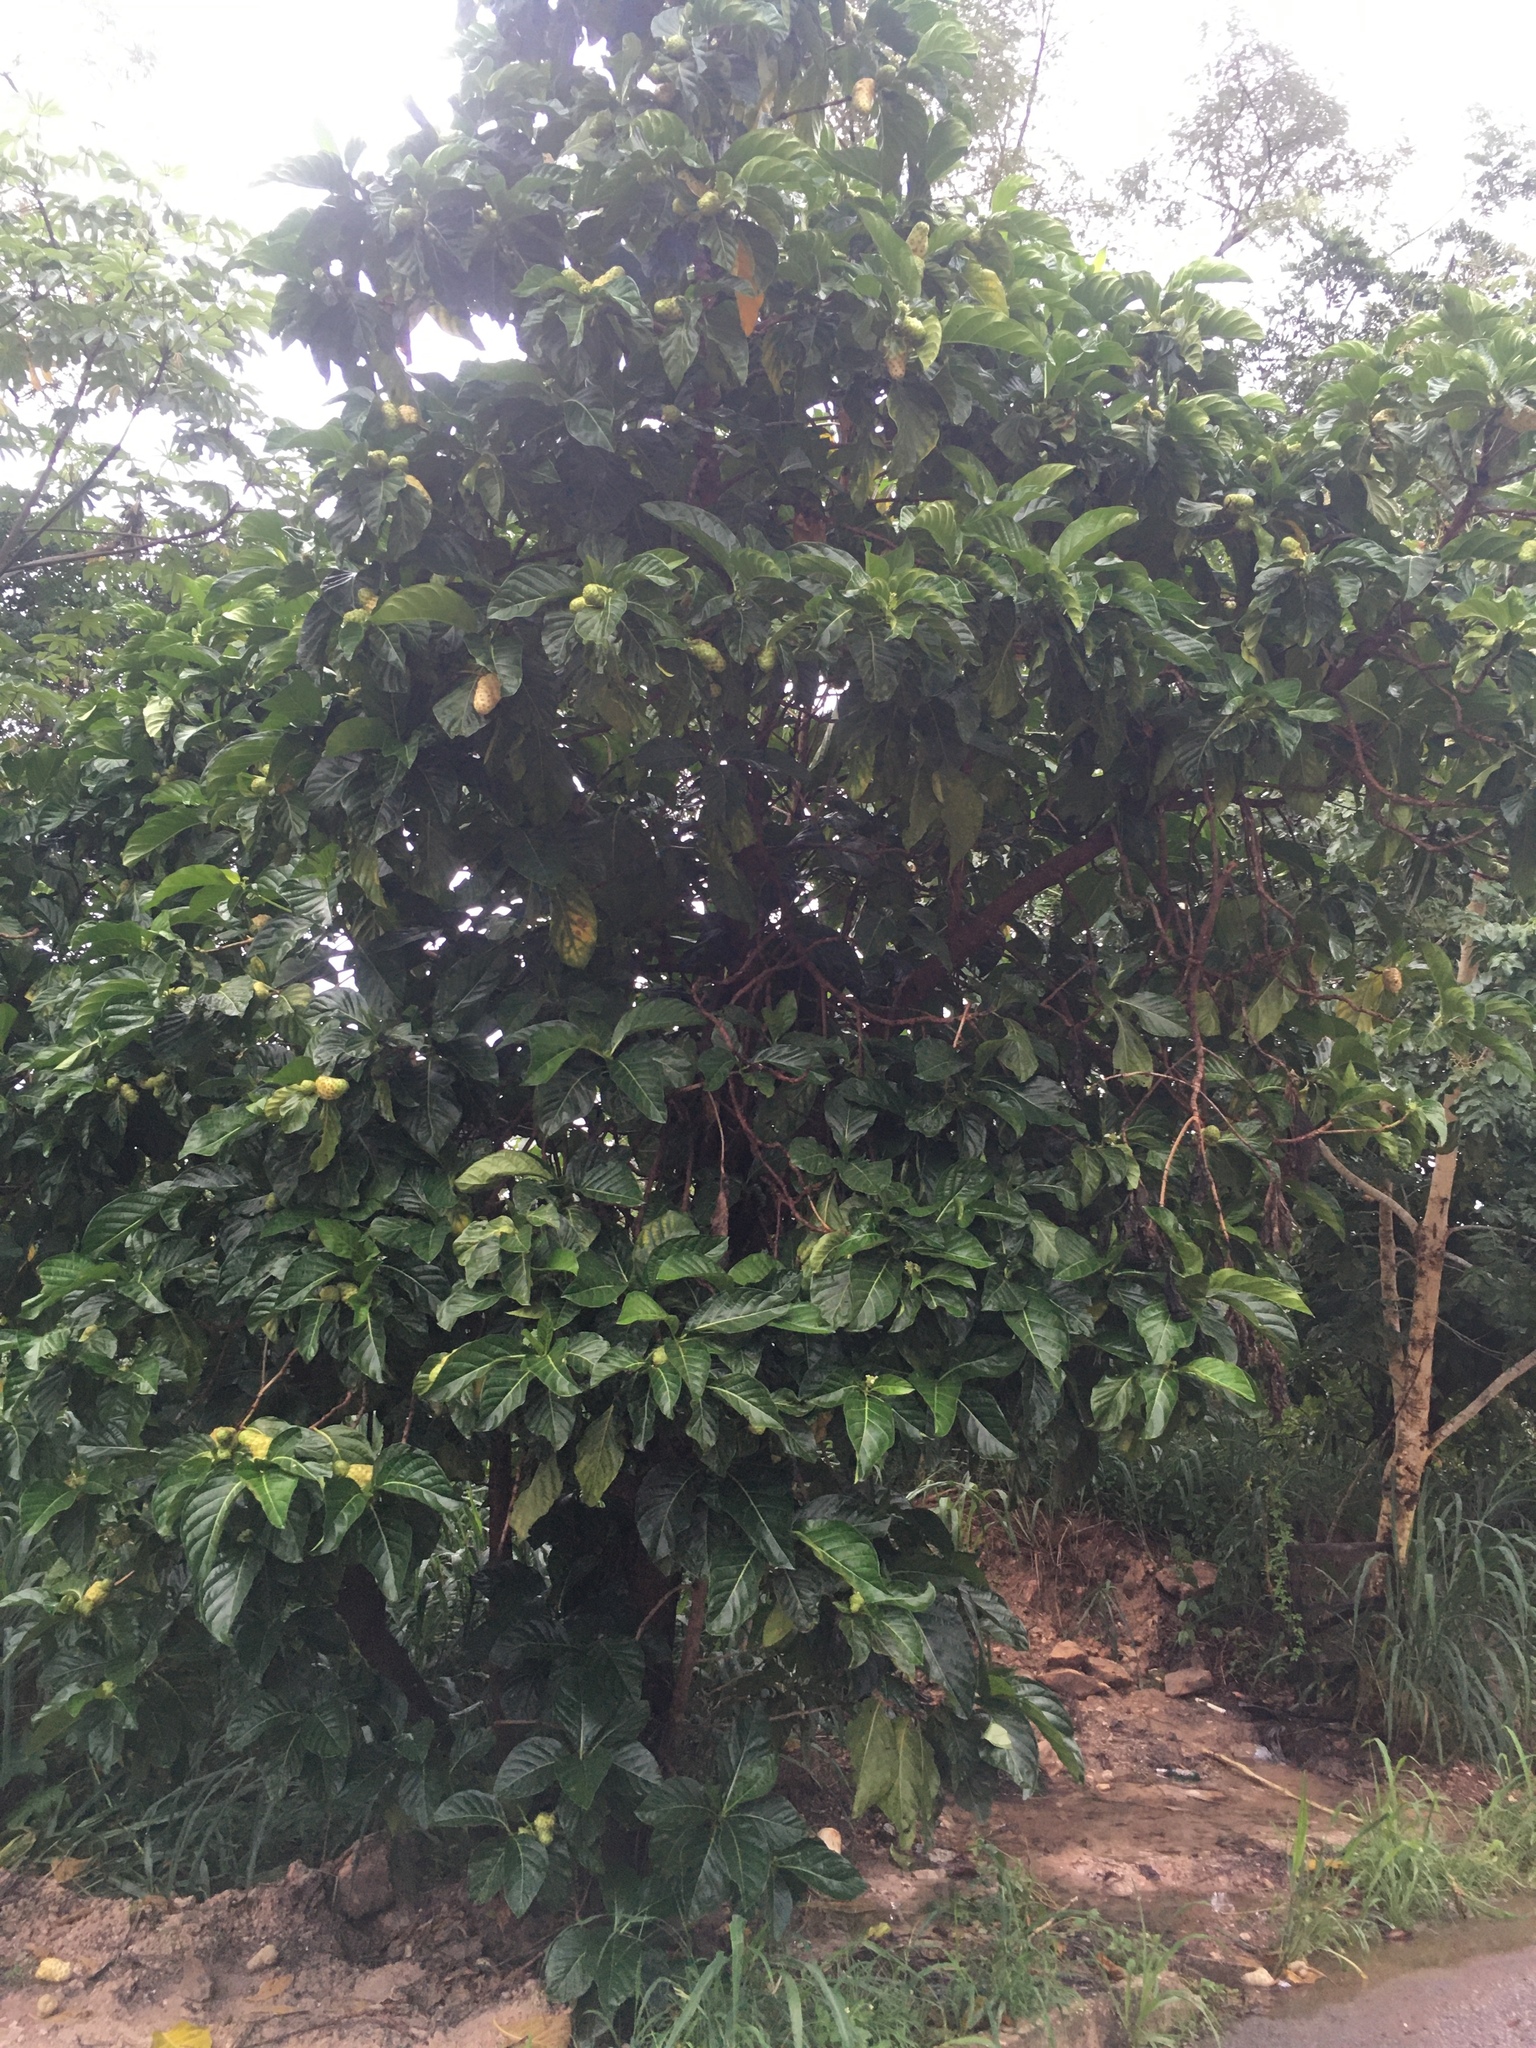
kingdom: Plantae
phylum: Tracheophyta
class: Magnoliopsida
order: Gentianales
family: Rubiaceae
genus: Morinda
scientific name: Morinda citrifolia
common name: Indian-mulberry
